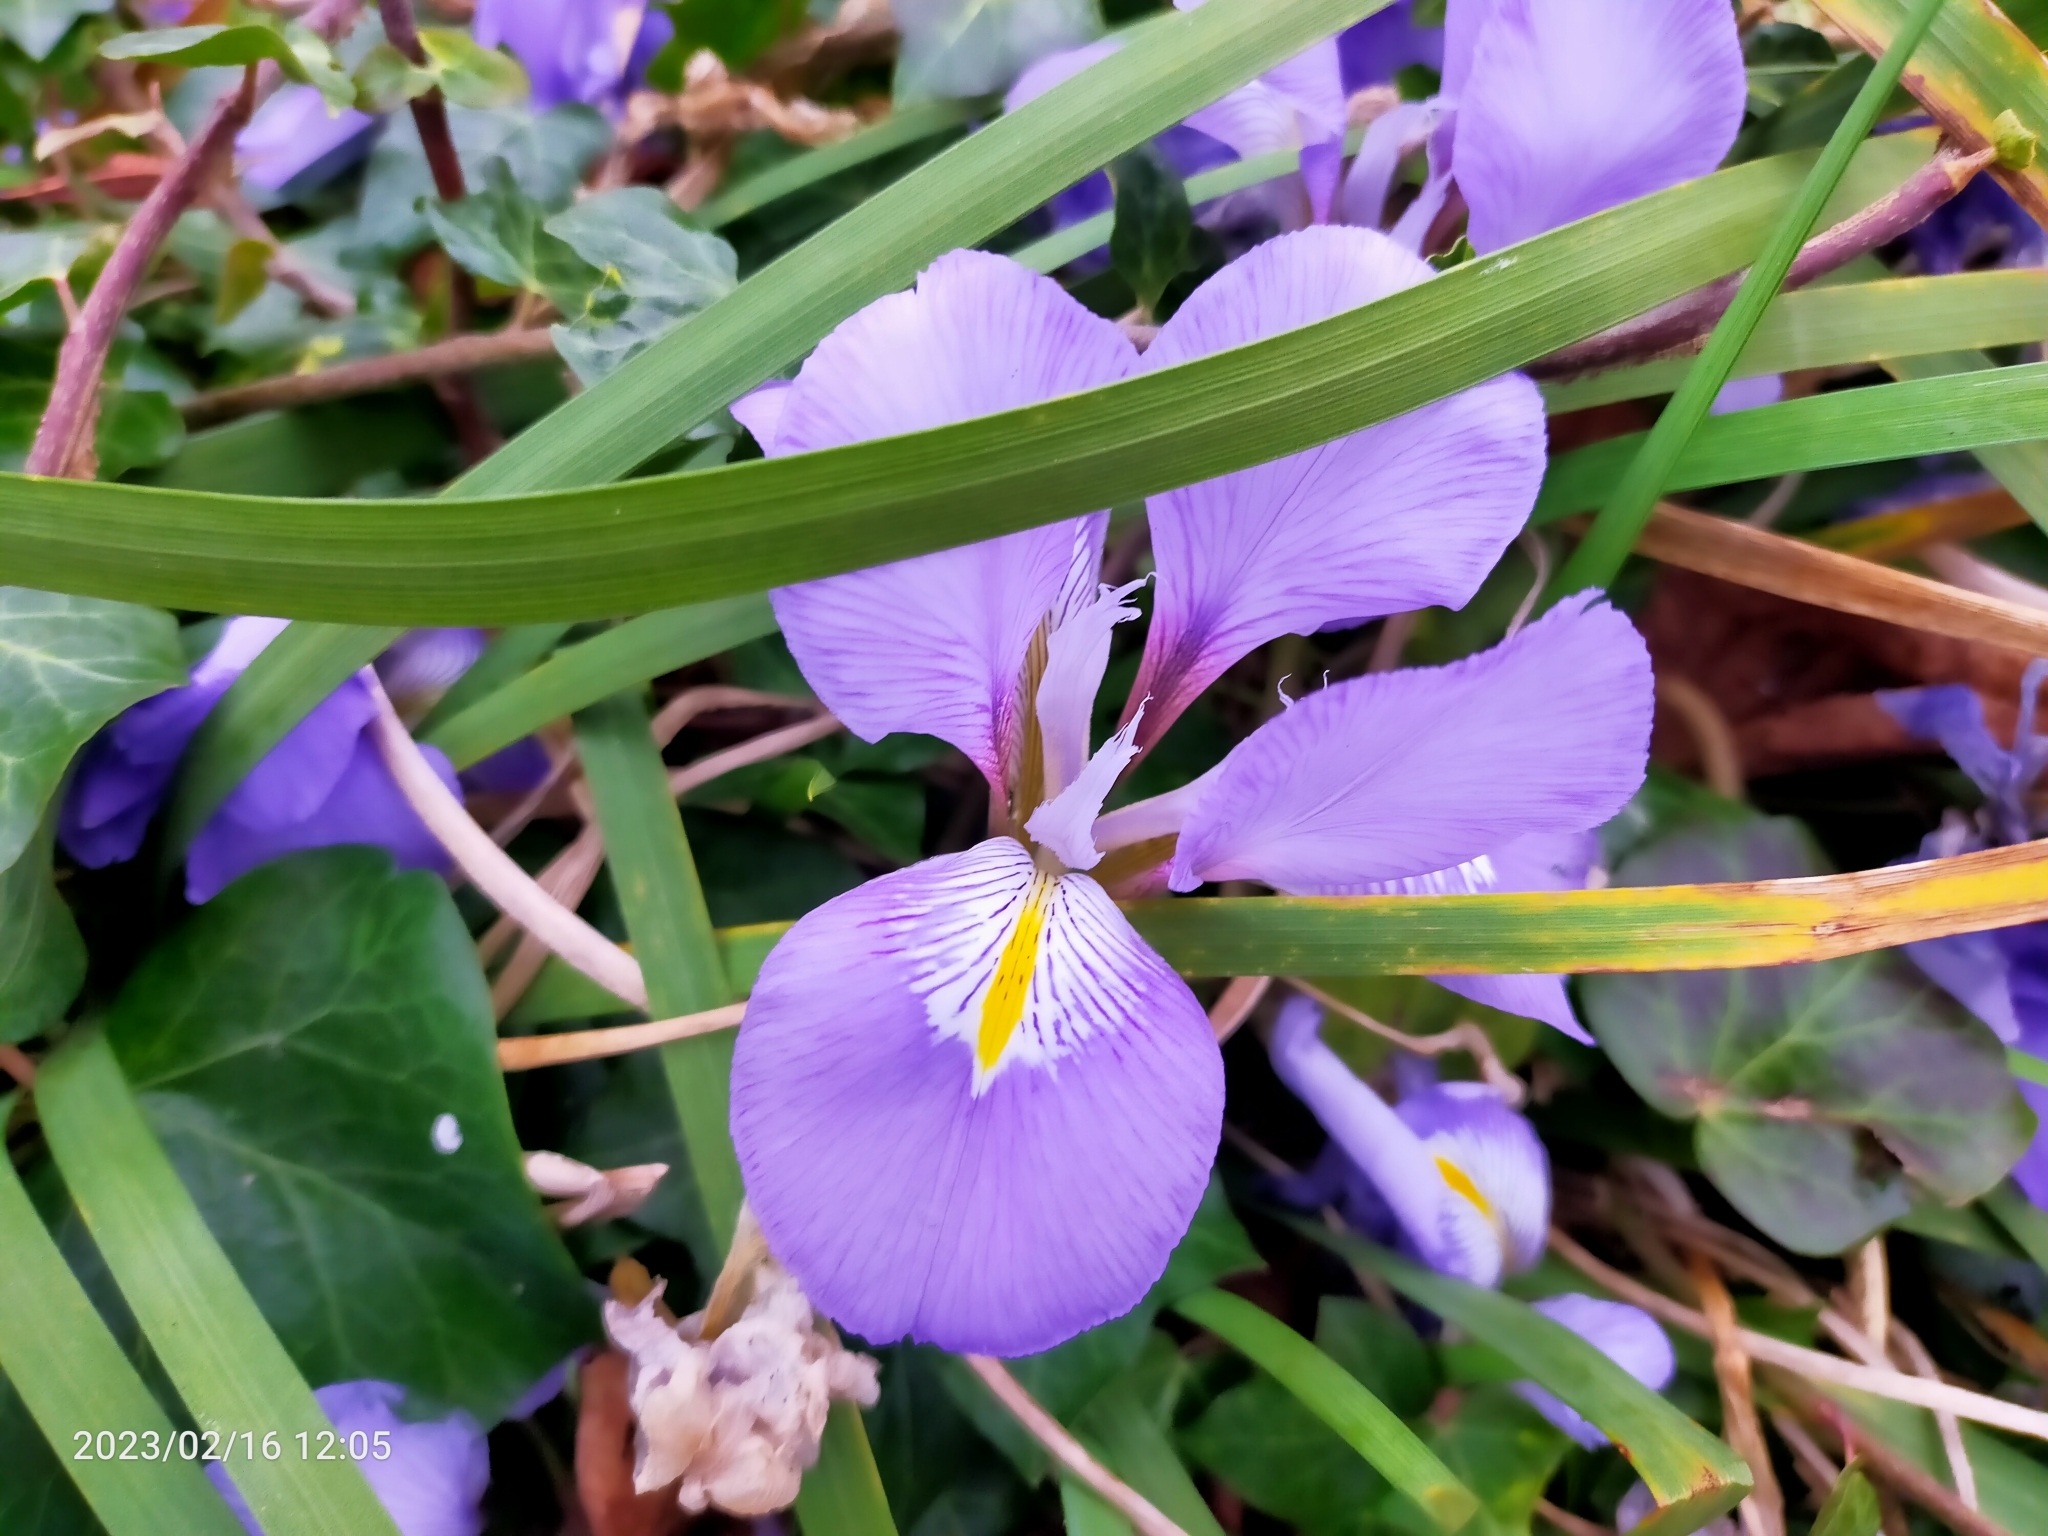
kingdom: Plantae
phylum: Tracheophyta
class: Liliopsida
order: Asparagales
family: Iridaceae
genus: Iris
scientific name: Iris unguicularis
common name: Algerian iris
